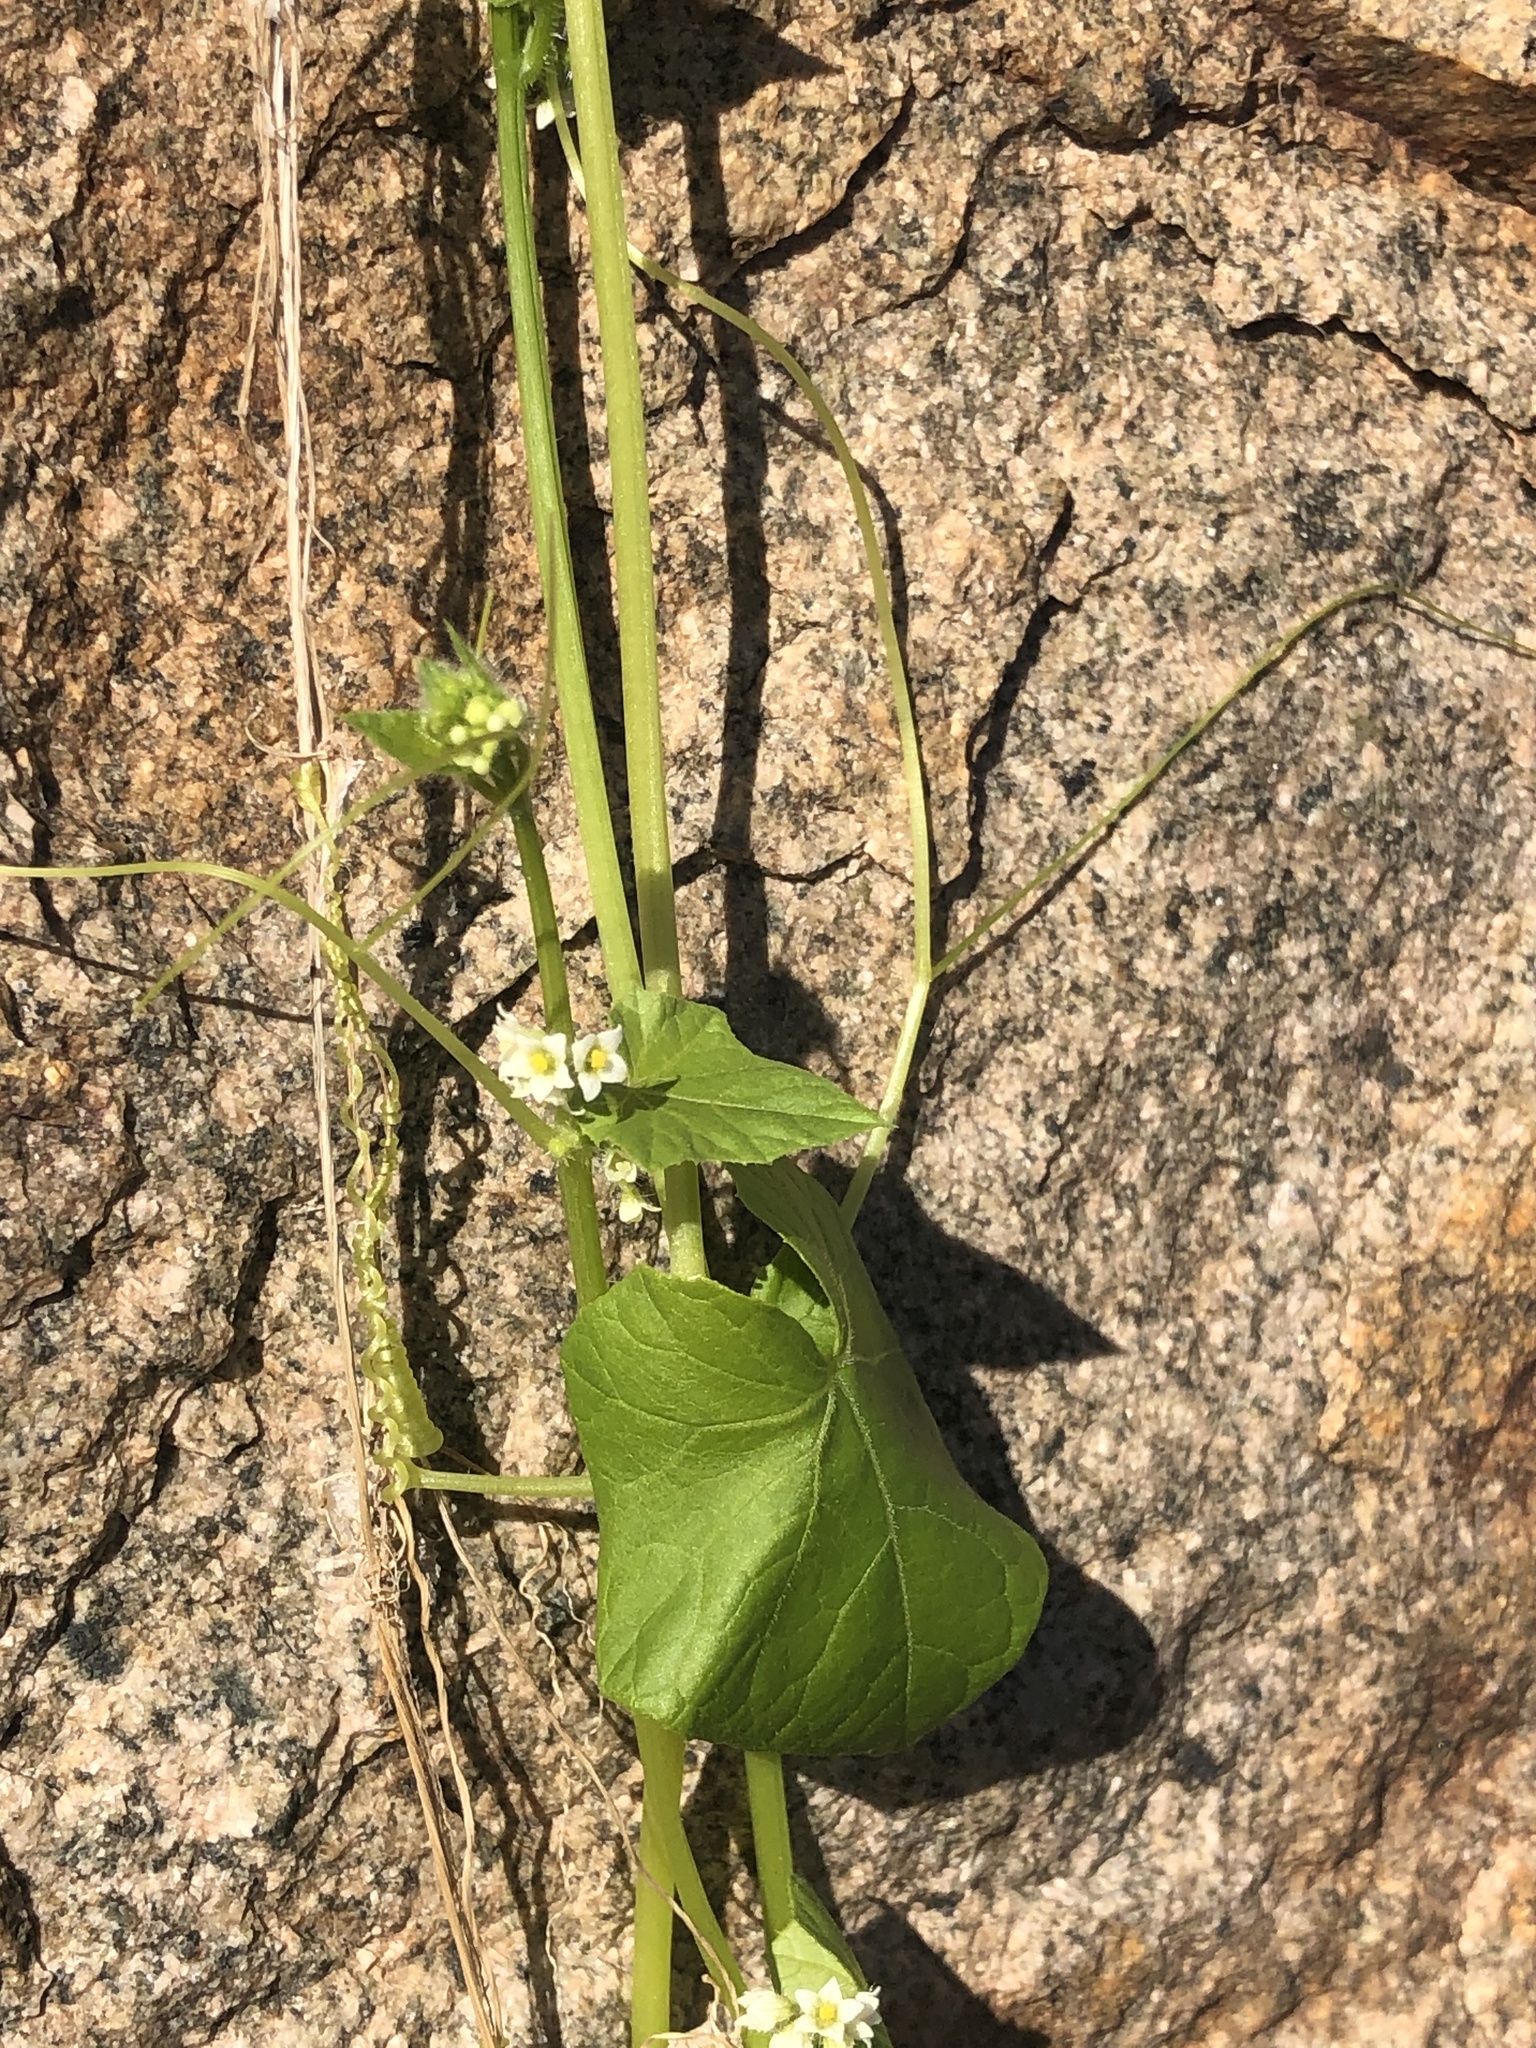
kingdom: Plantae
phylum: Tracheophyta
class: Magnoliopsida
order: Cucurbitales
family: Cucurbitaceae
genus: Sicyos
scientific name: Sicyos baderoa
